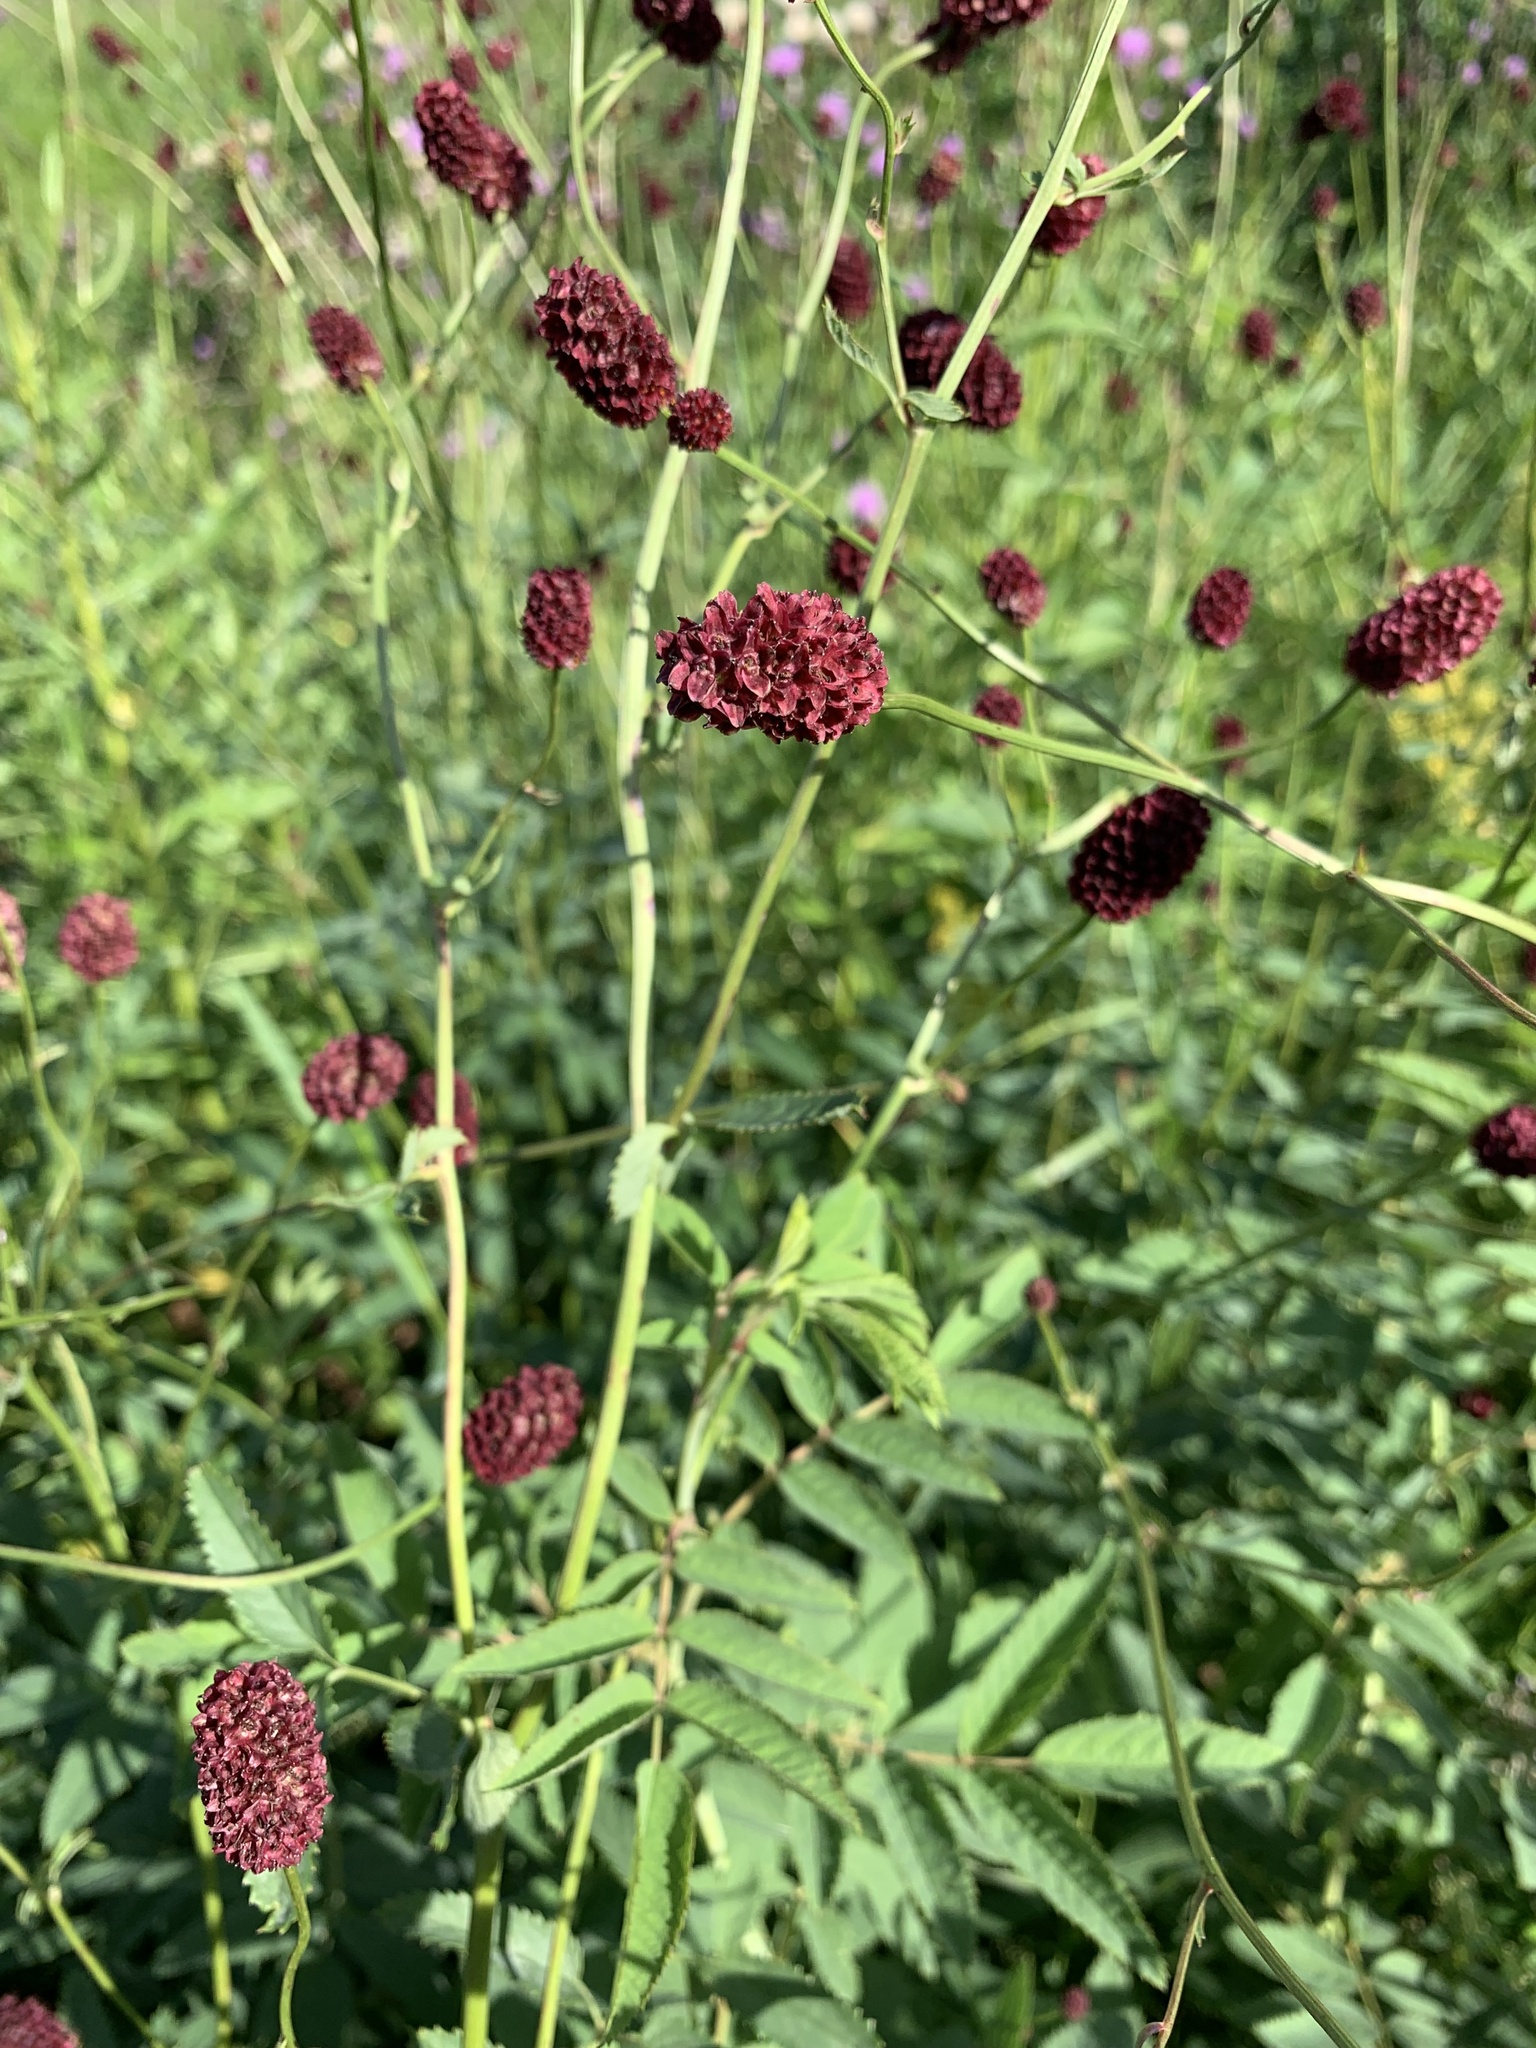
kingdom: Plantae
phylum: Tracheophyta
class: Magnoliopsida
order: Rosales
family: Rosaceae
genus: Sanguisorba
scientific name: Sanguisorba officinalis
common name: Great burnet
